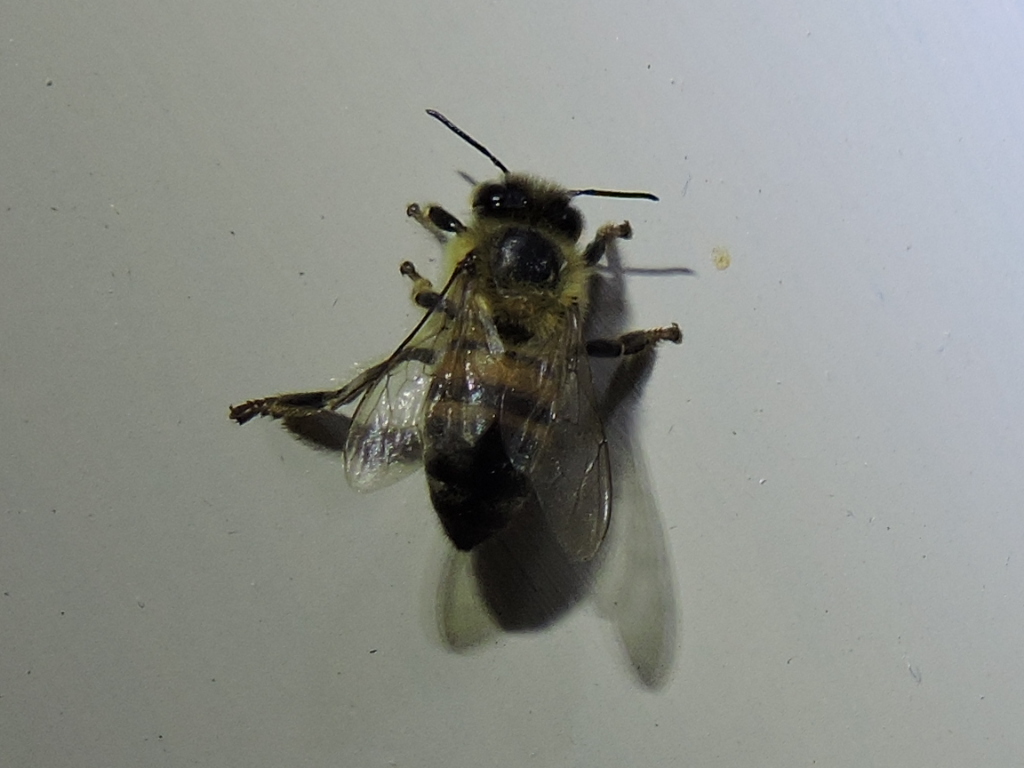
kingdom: Animalia
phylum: Arthropoda
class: Insecta
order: Hymenoptera
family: Apidae
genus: Apis
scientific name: Apis mellifera
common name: Honey bee
